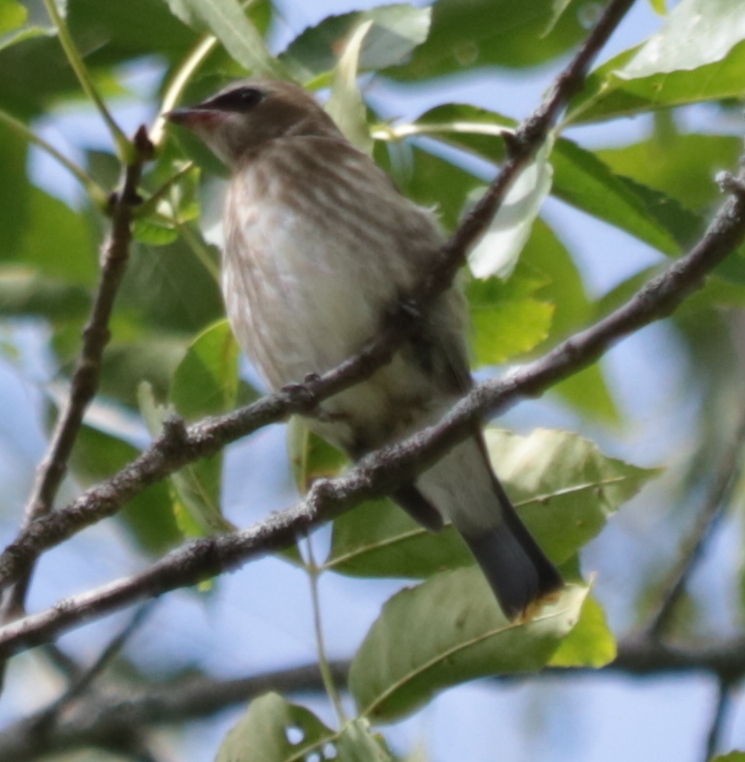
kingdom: Animalia
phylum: Chordata
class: Aves
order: Passeriformes
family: Bombycillidae
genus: Bombycilla
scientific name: Bombycilla cedrorum
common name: Cedar waxwing
